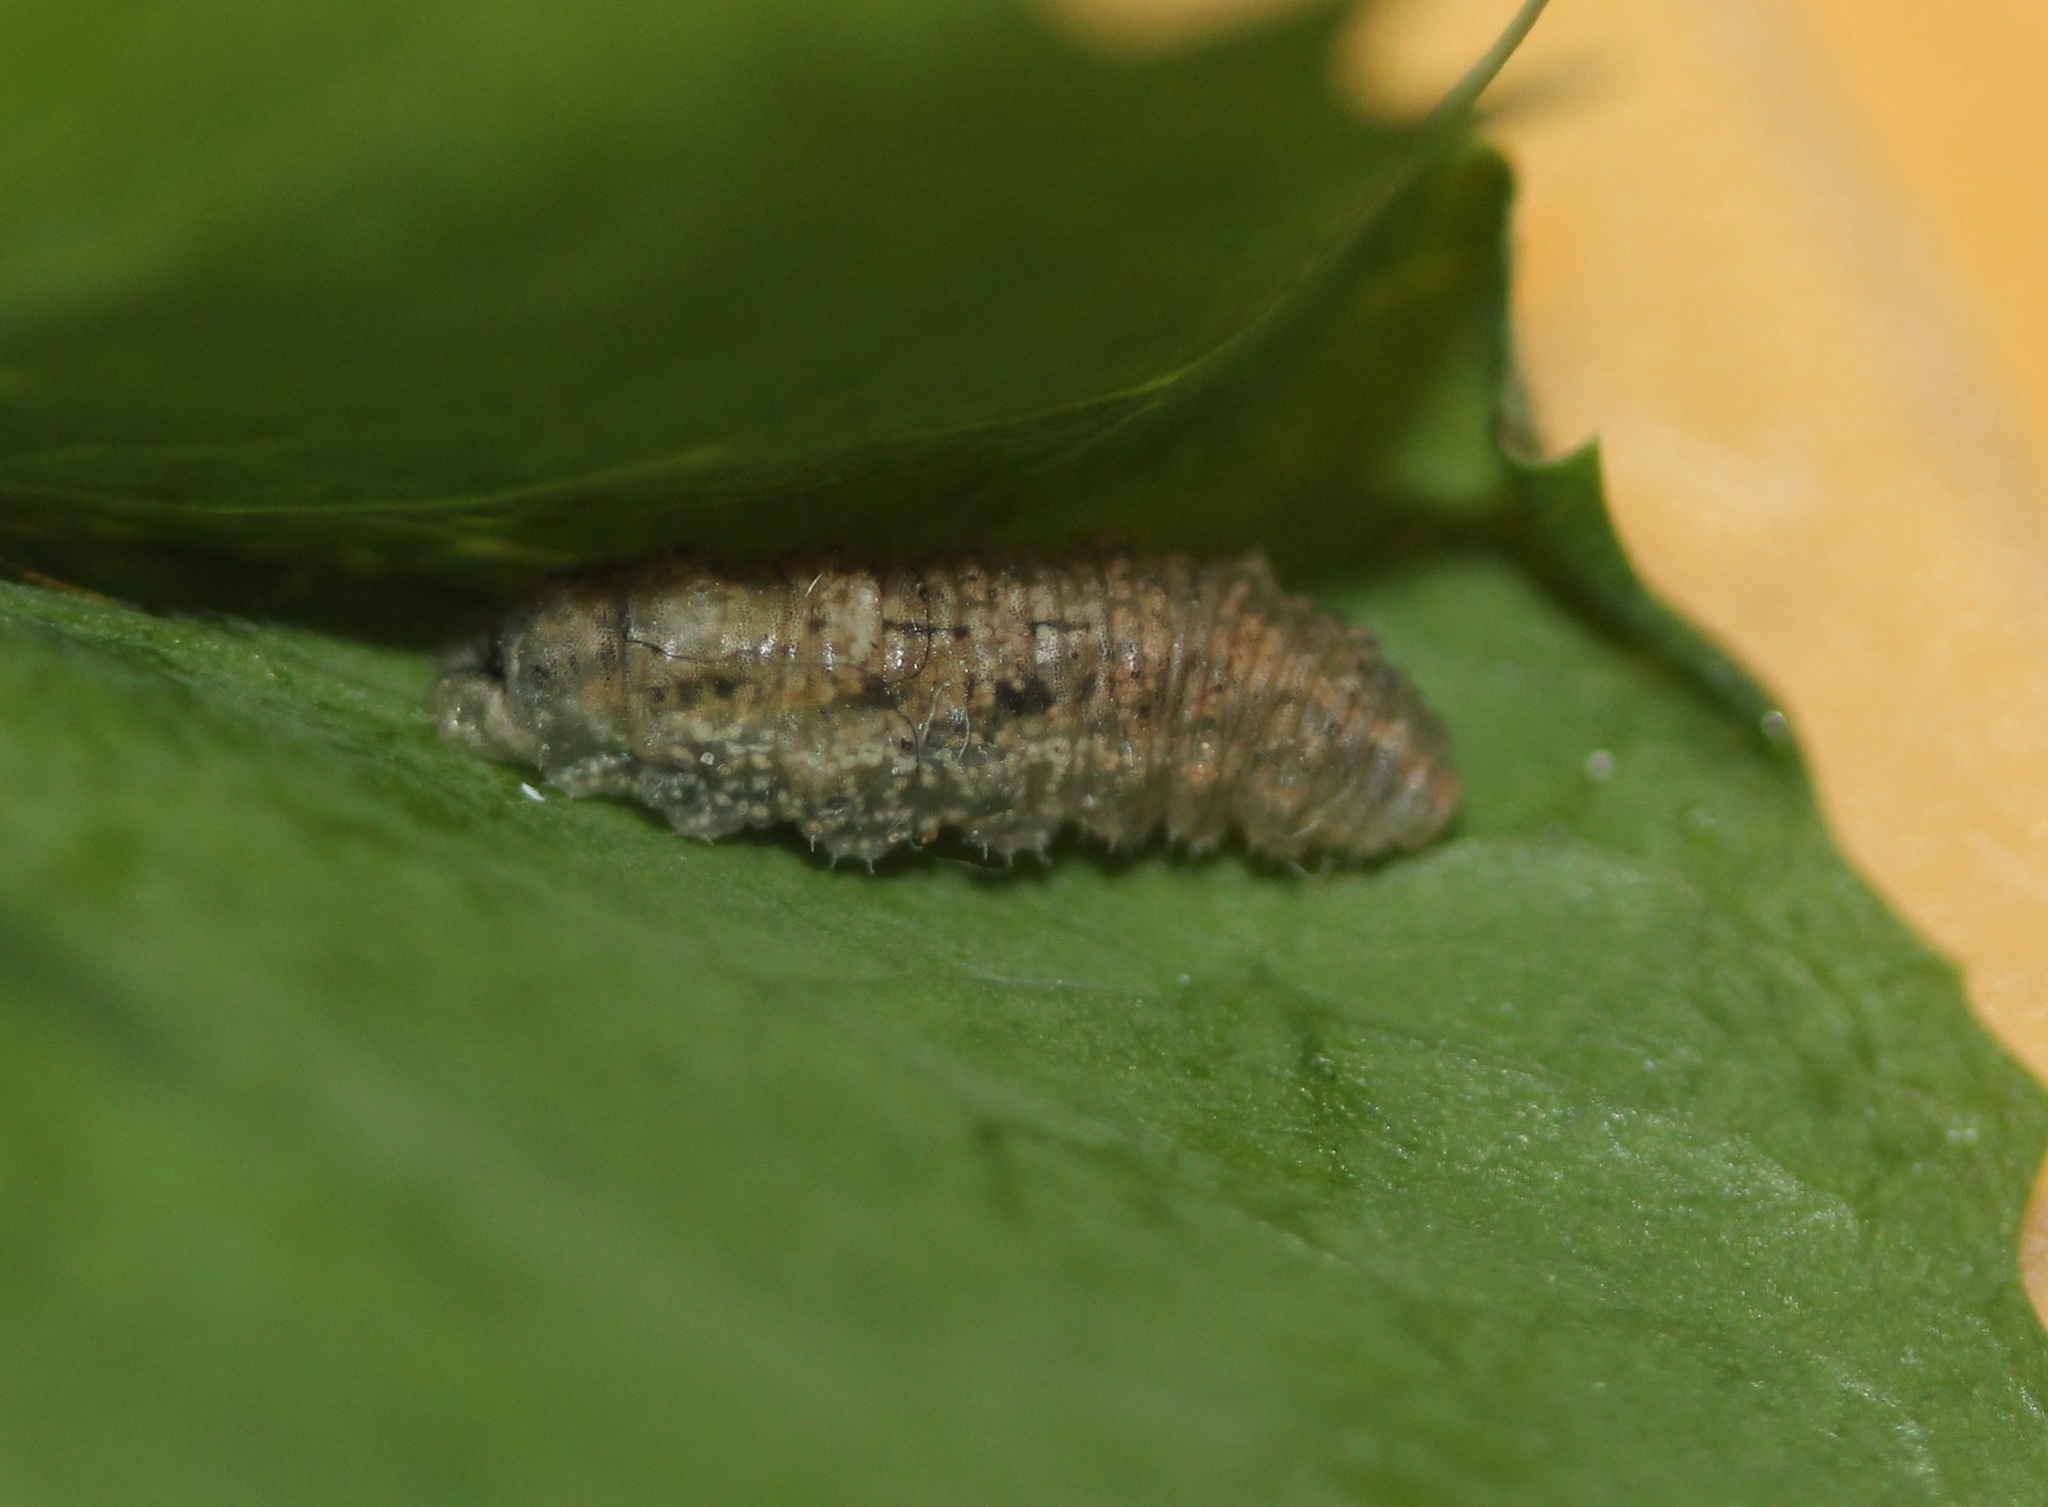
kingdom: Animalia
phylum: Arthropoda
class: Insecta
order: Diptera
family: Syrphidae
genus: Eupeodes
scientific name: Eupeodes americanus
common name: Long-tailed aphideater
